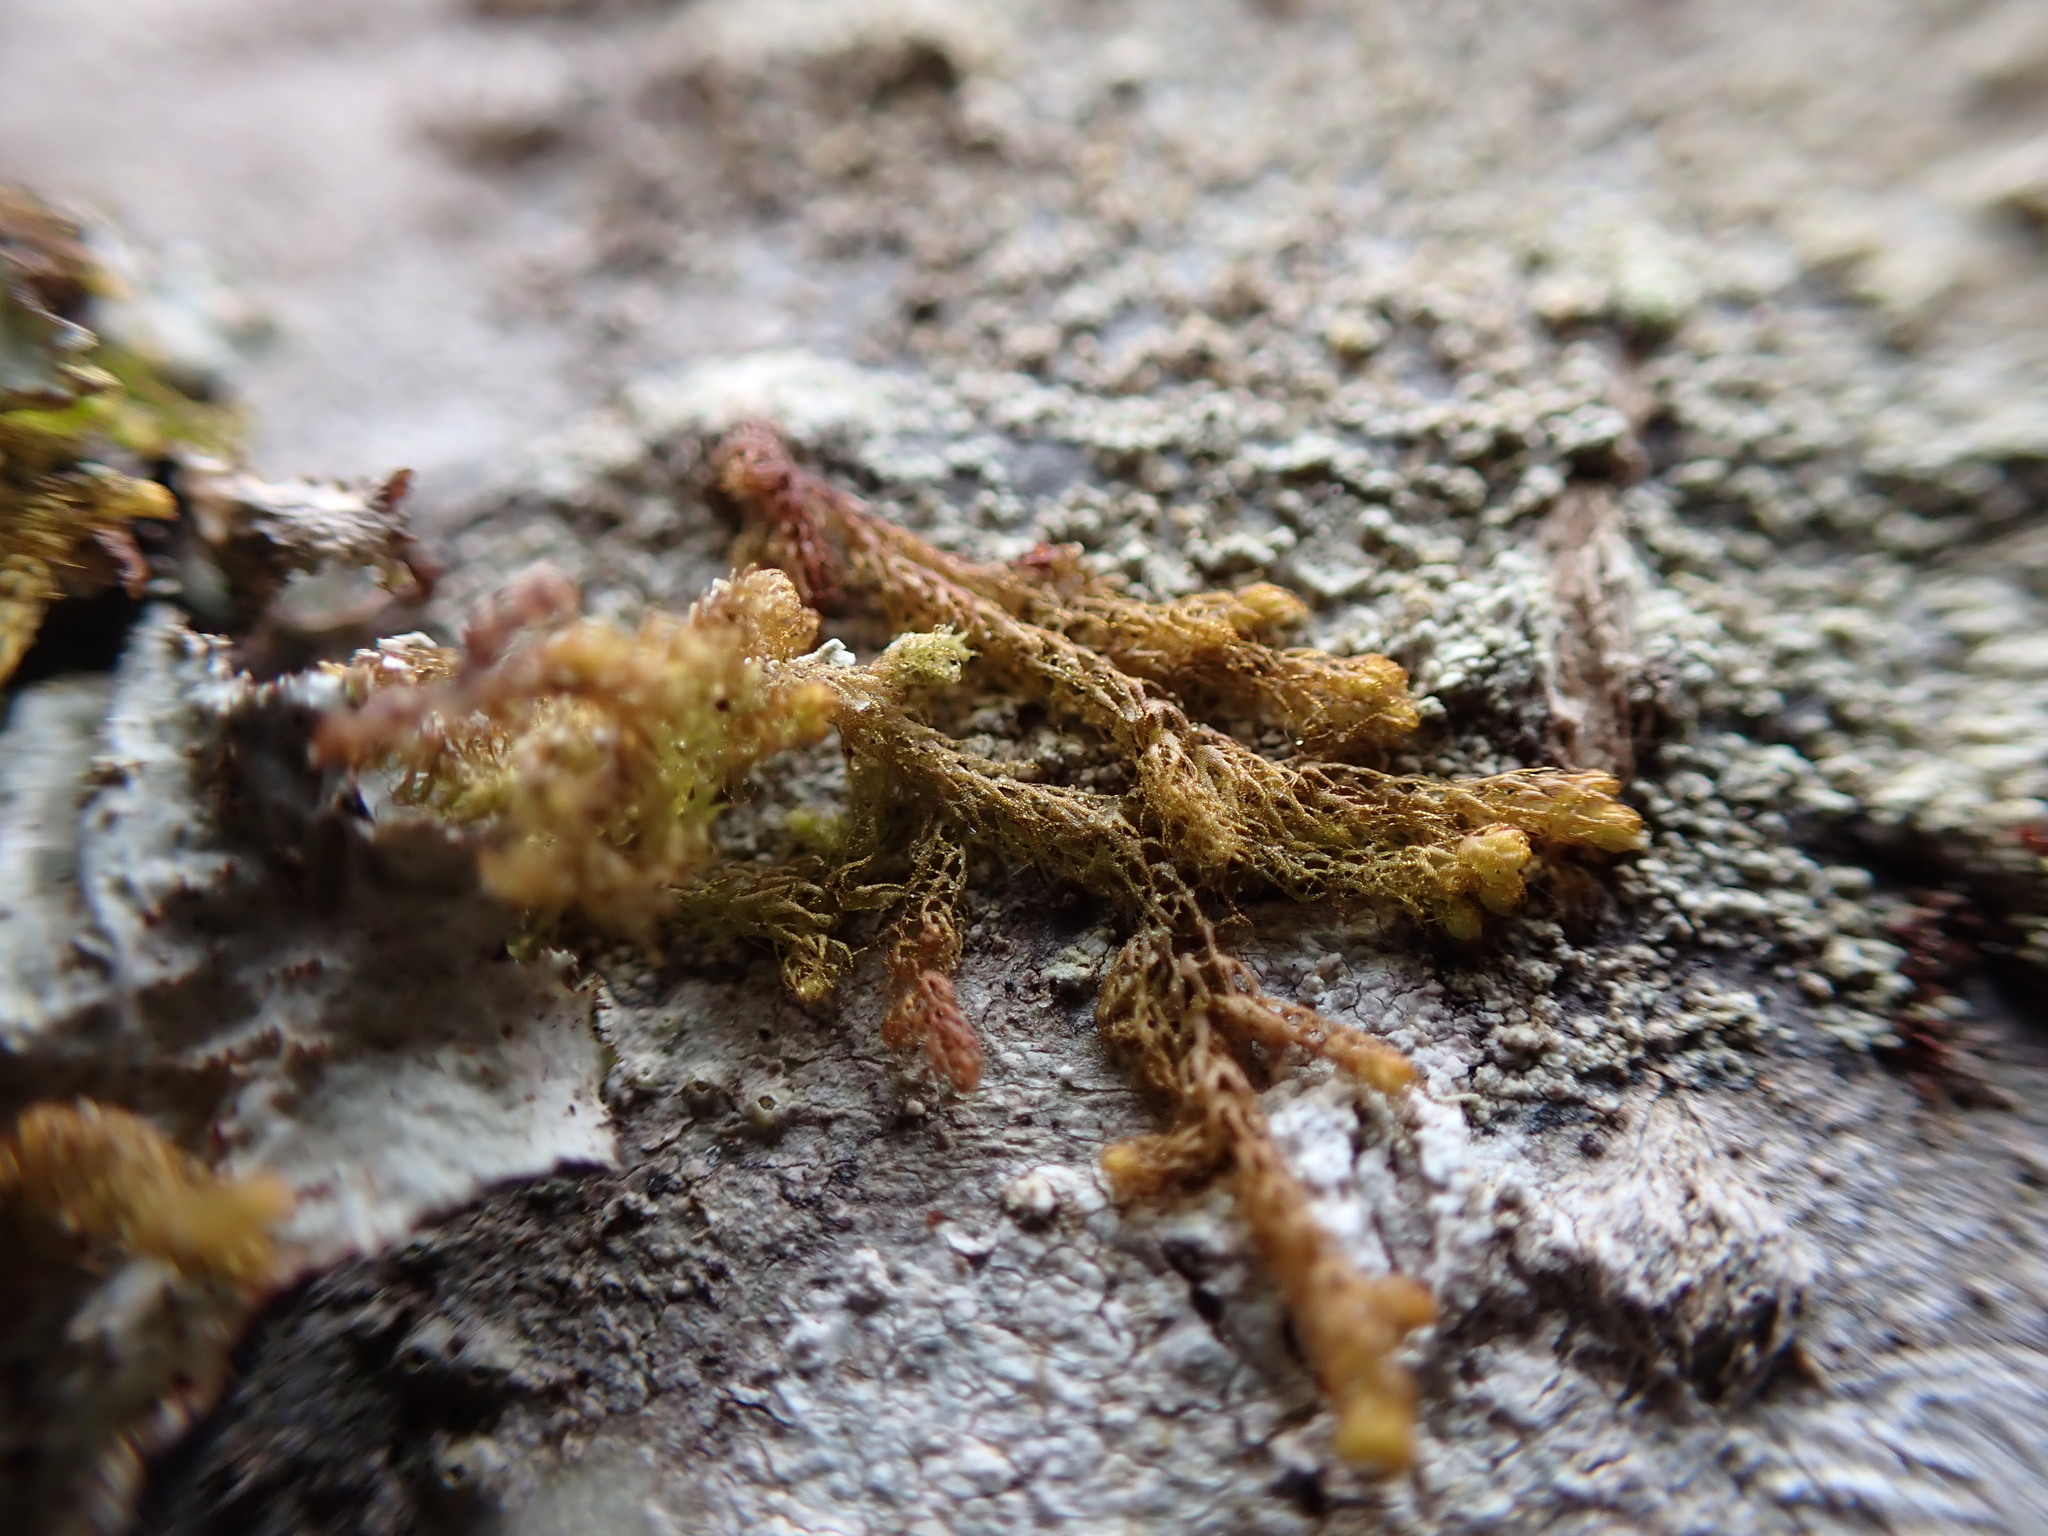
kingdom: Plantae
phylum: Marchantiophyta
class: Jungermanniopsida
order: Ptilidiales
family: Ptilidiaceae
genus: Ptilidium
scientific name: Ptilidium californicum
